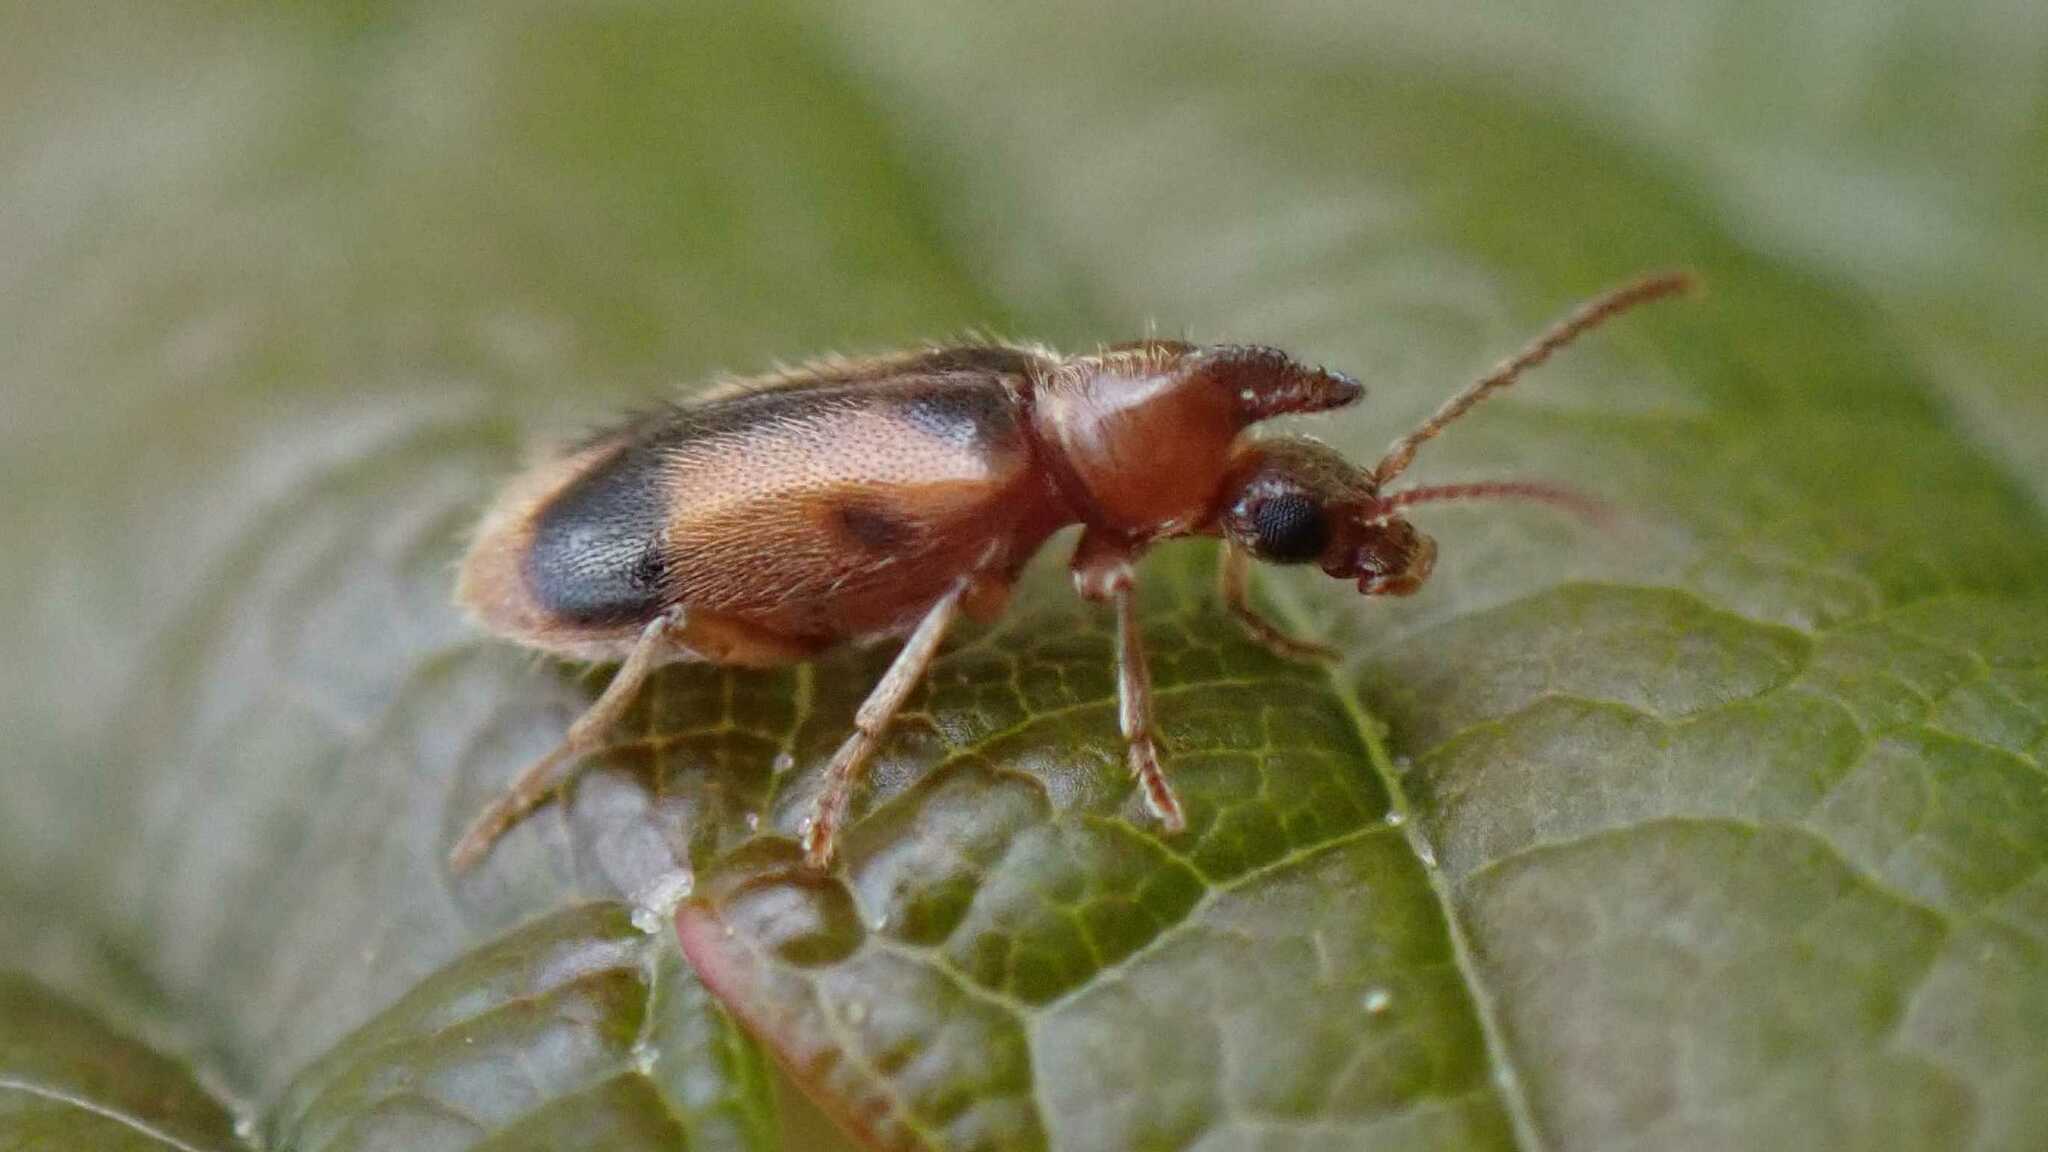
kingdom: Animalia
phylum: Arthropoda
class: Insecta
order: Coleoptera
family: Anthicidae
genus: Notoxus
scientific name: Notoxus monoceros
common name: Monoceros beetle
